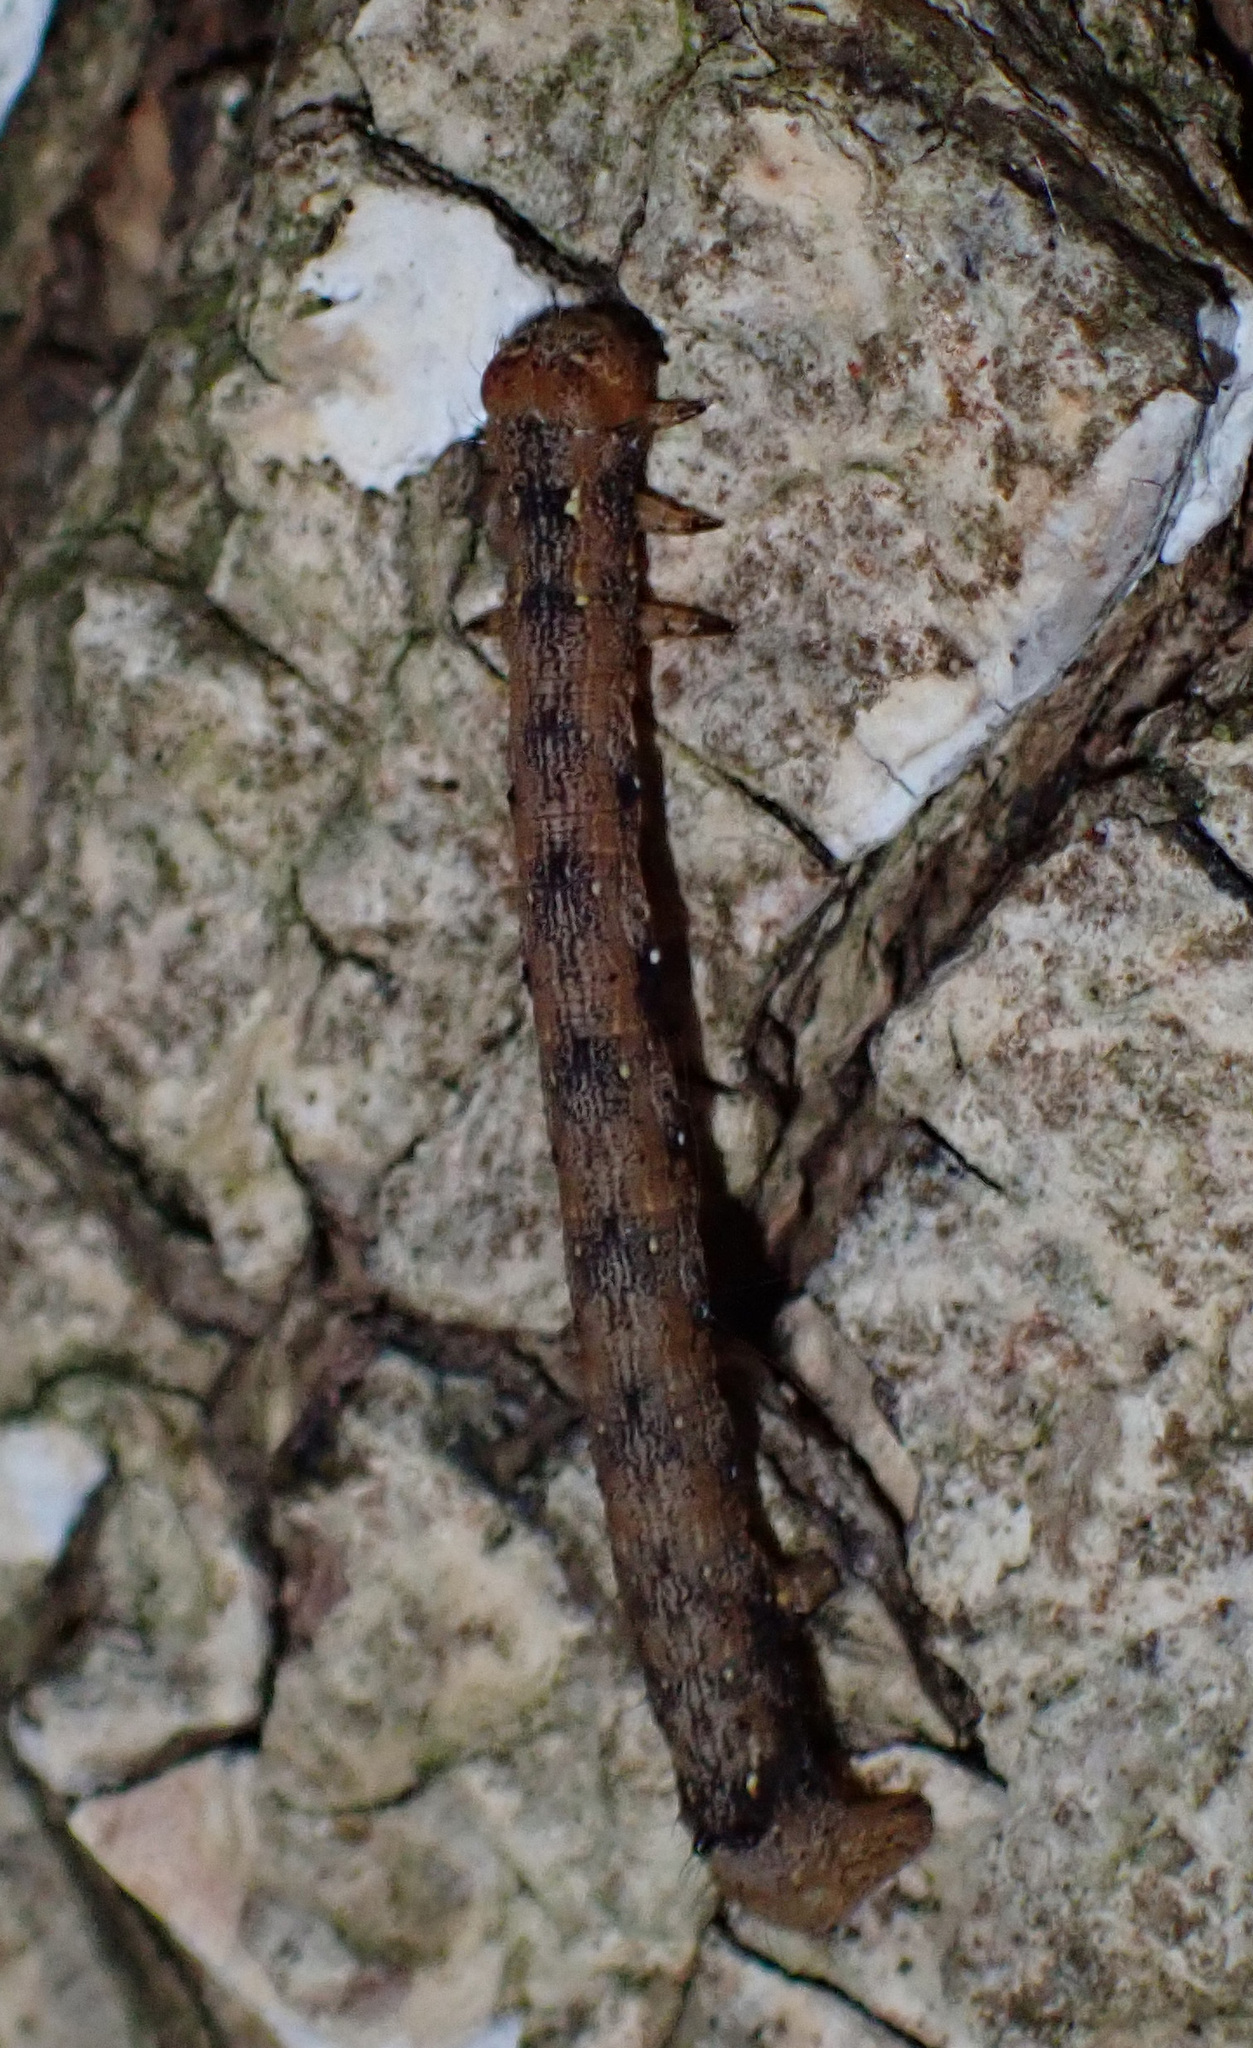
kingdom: Animalia
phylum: Arthropoda
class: Insecta
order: Lepidoptera
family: Geometridae
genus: Colotois
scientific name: Colotois pennaria
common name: Feathered thorn
